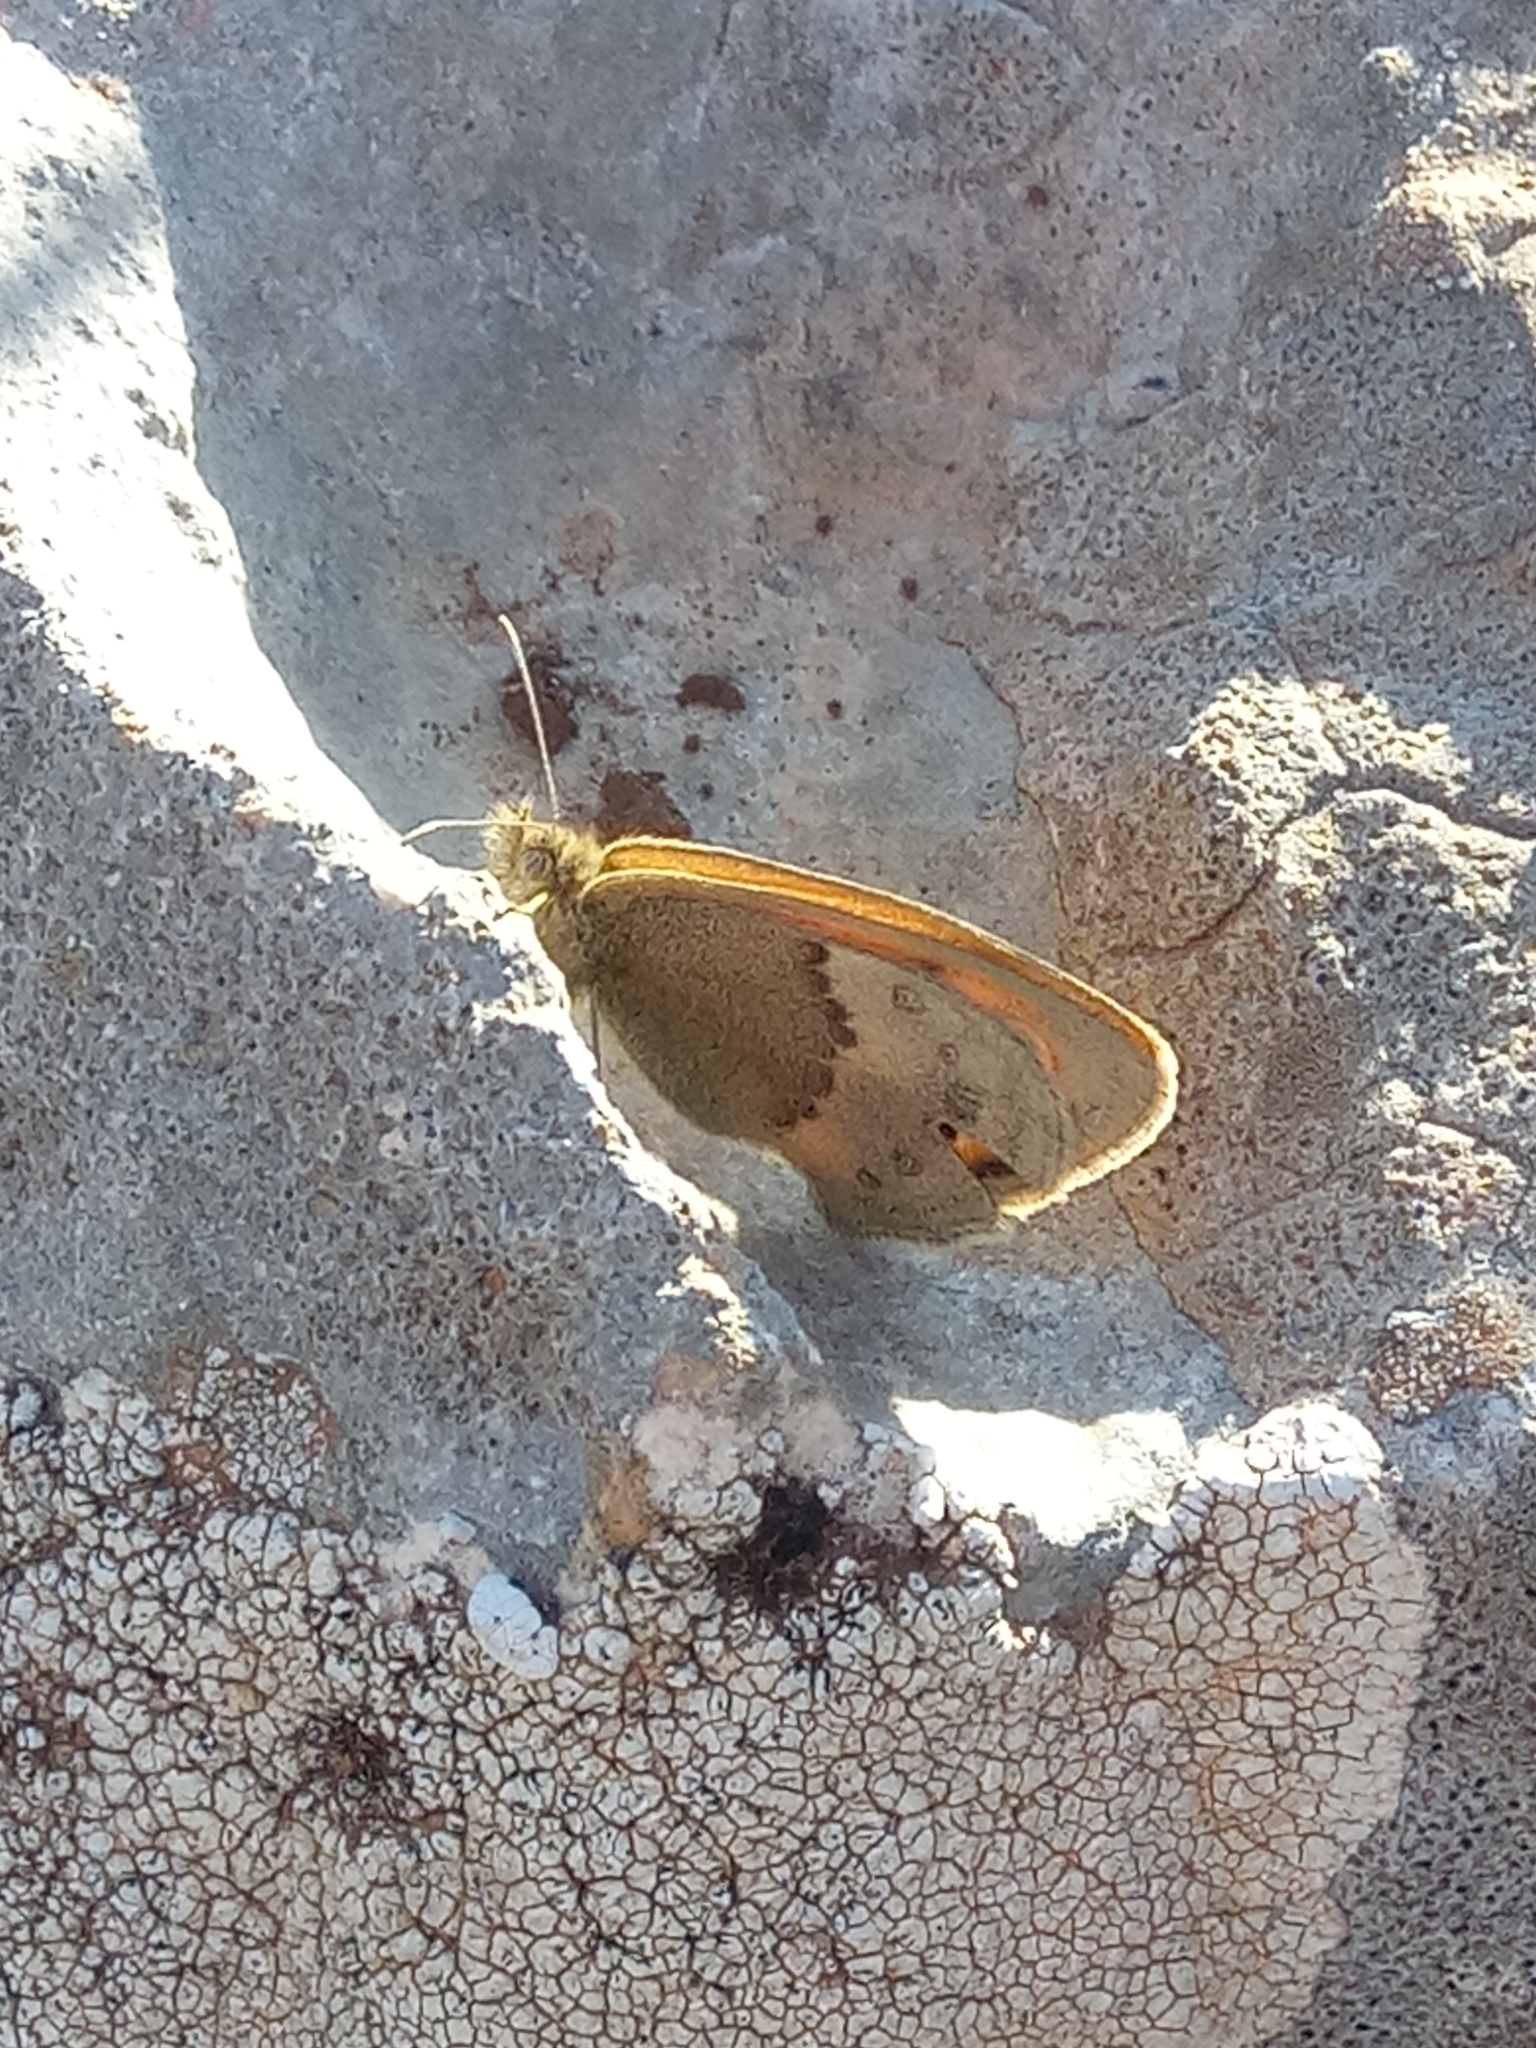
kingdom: Animalia
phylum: Arthropoda
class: Insecta
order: Lepidoptera
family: Nymphalidae
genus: Coenonympha
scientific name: Coenonympha pamphilus
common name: Small heath
